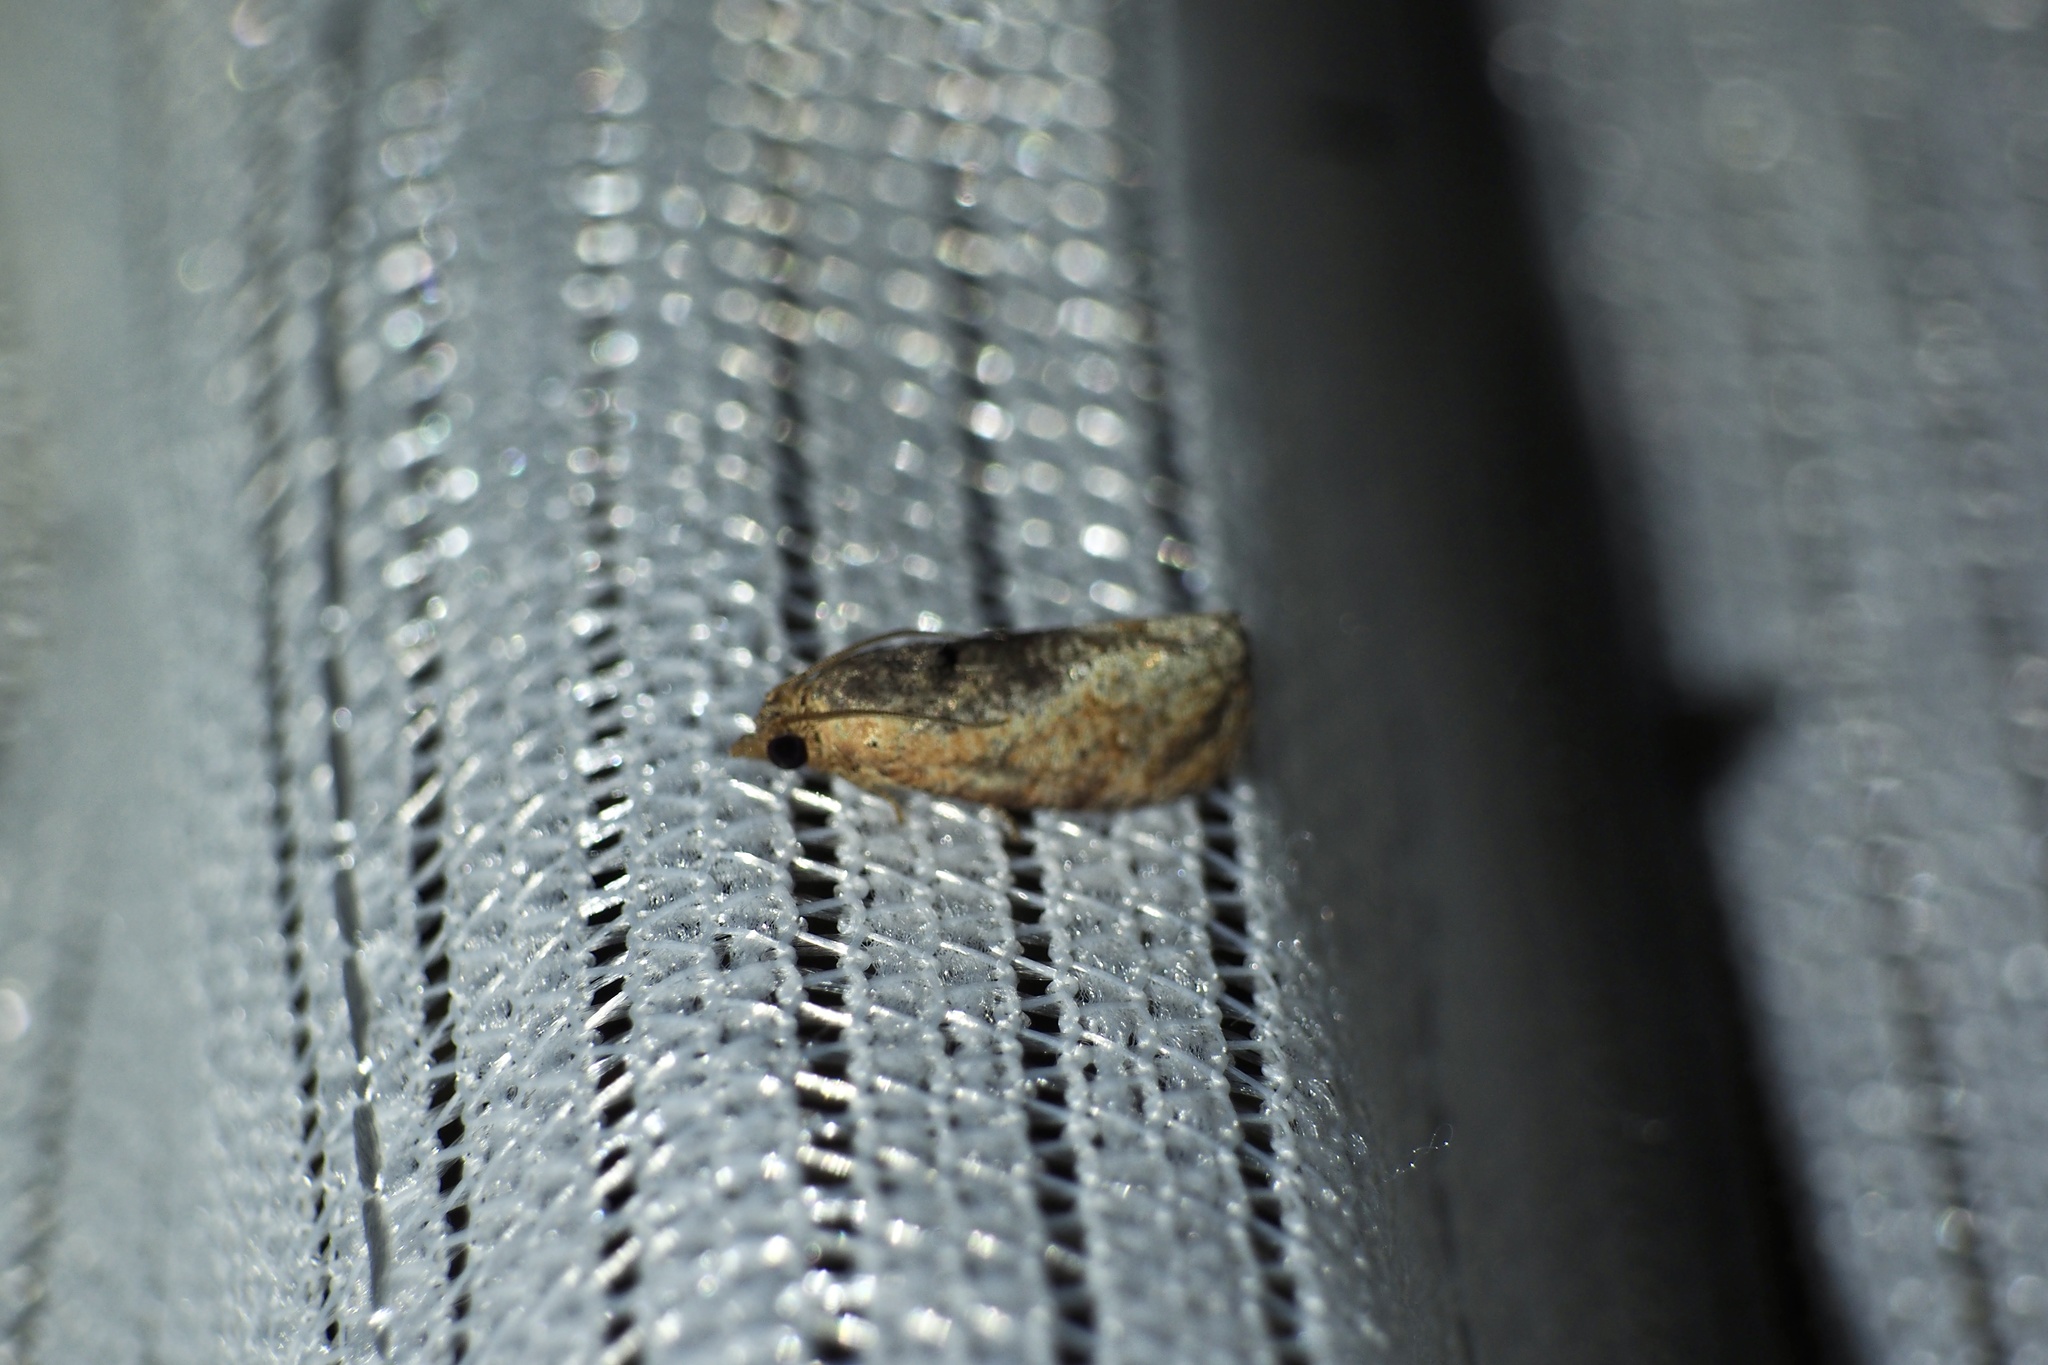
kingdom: Animalia
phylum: Arthropoda
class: Insecta
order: Lepidoptera
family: Tortricidae
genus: Cryptophlebia
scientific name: Cryptophlebia ombrodelta
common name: Litchi fruit moth
